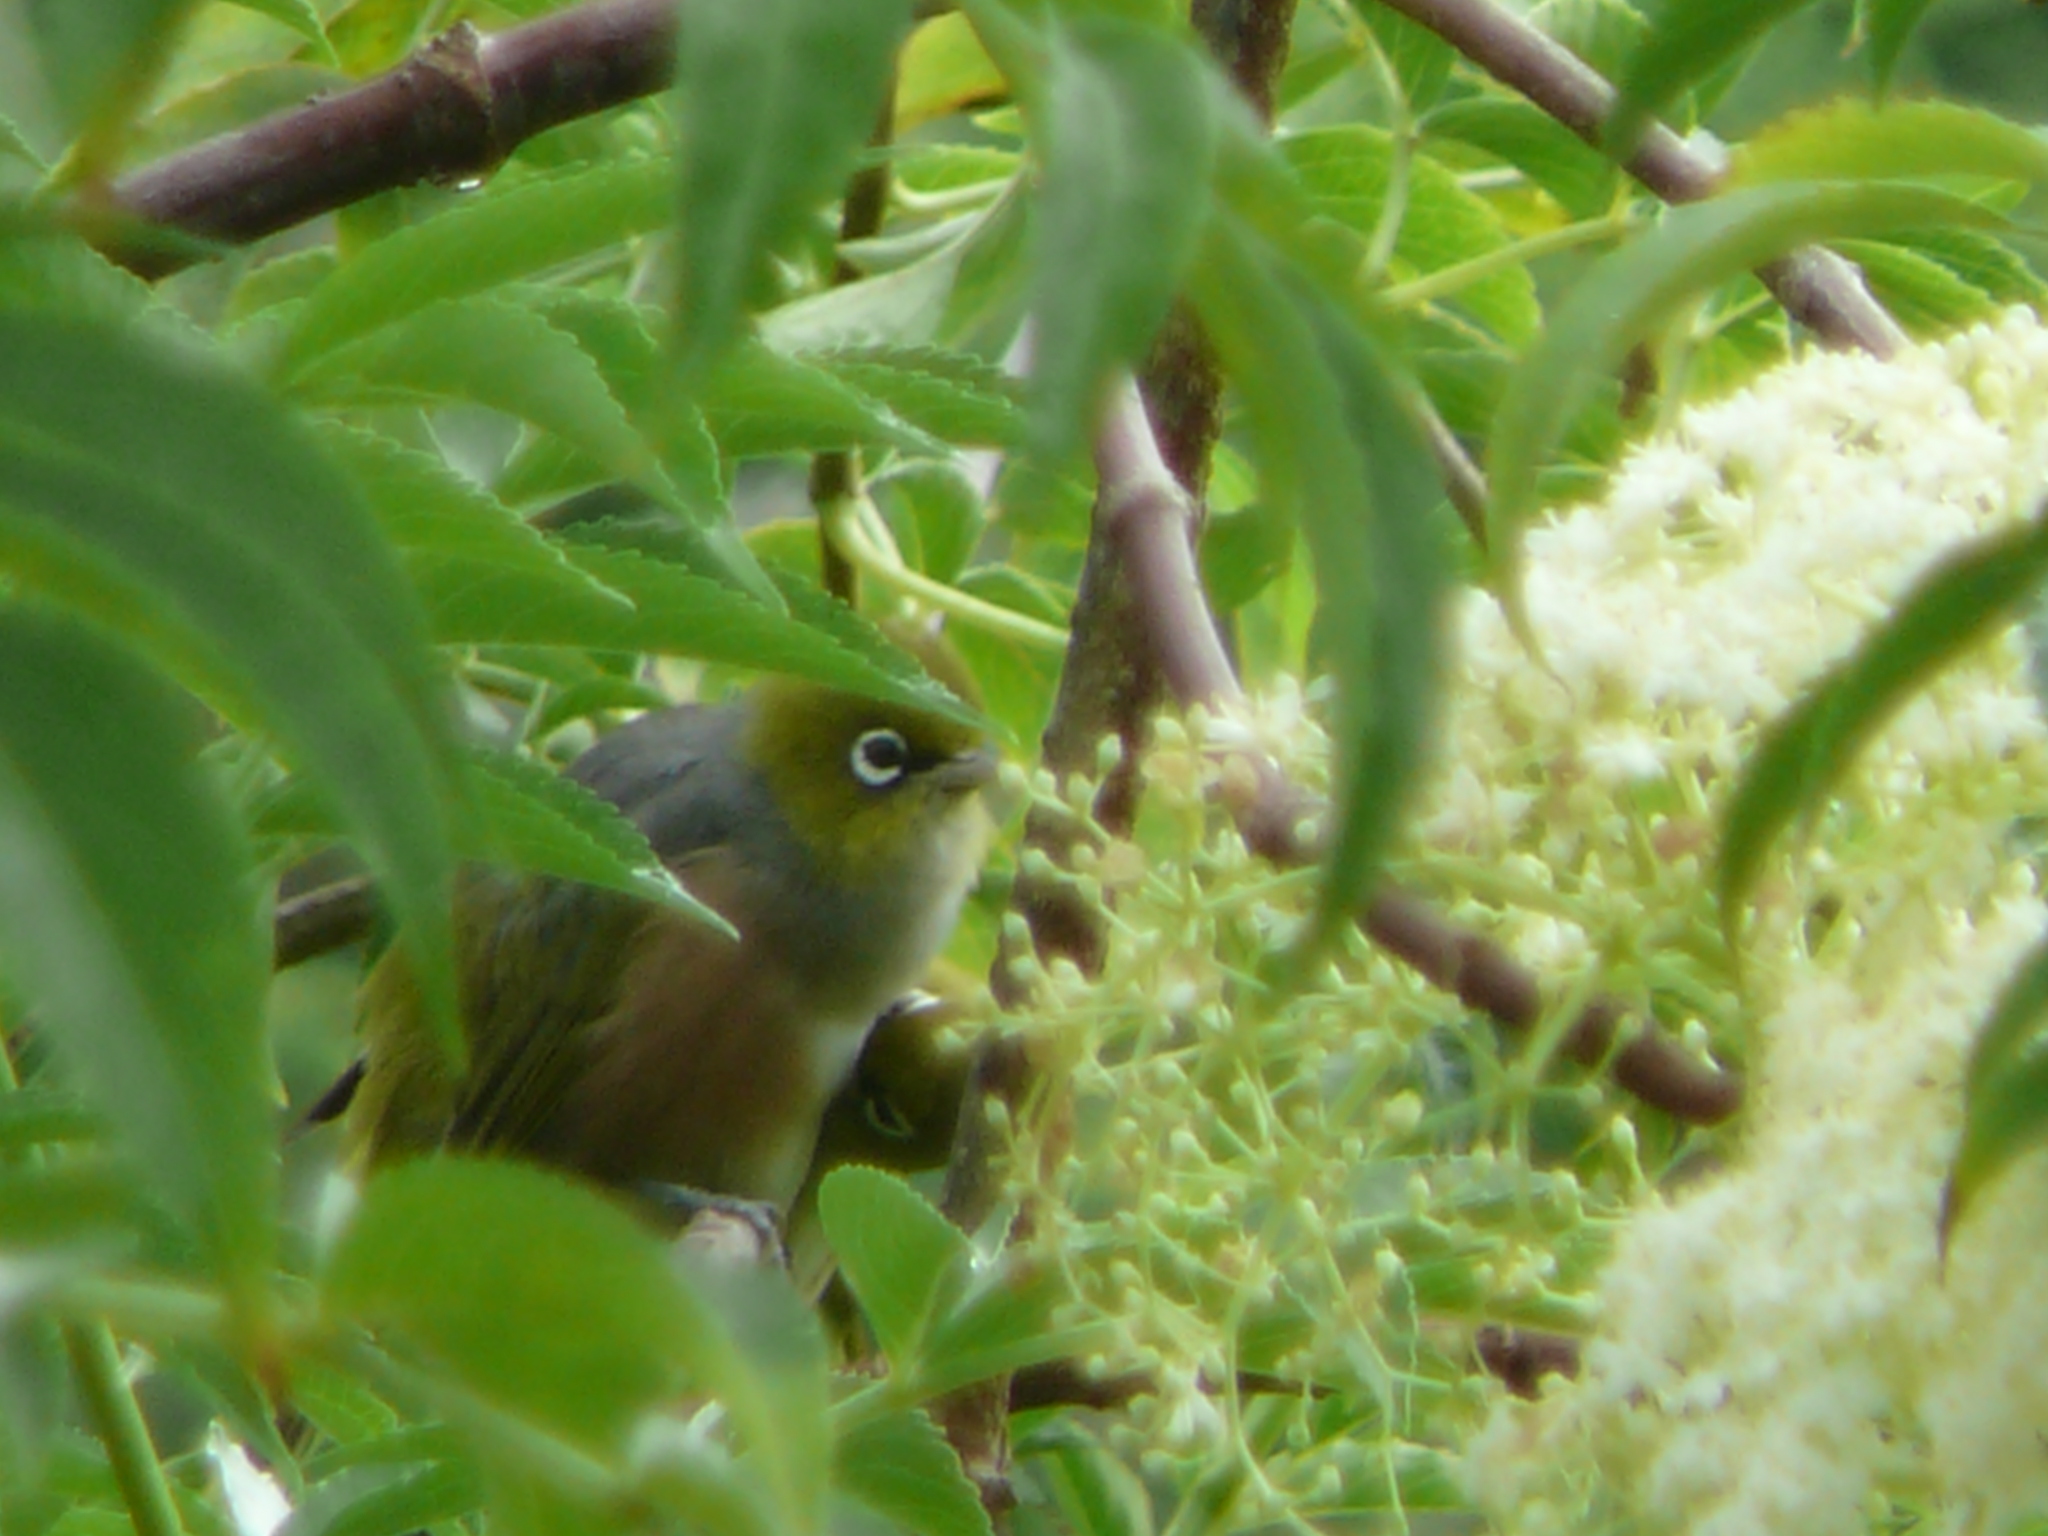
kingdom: Animalia
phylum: Chordata
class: Aves
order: Passeriformes
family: Zosteropidae
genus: Zosterops
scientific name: Zosterops lateralis
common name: Silvereye
